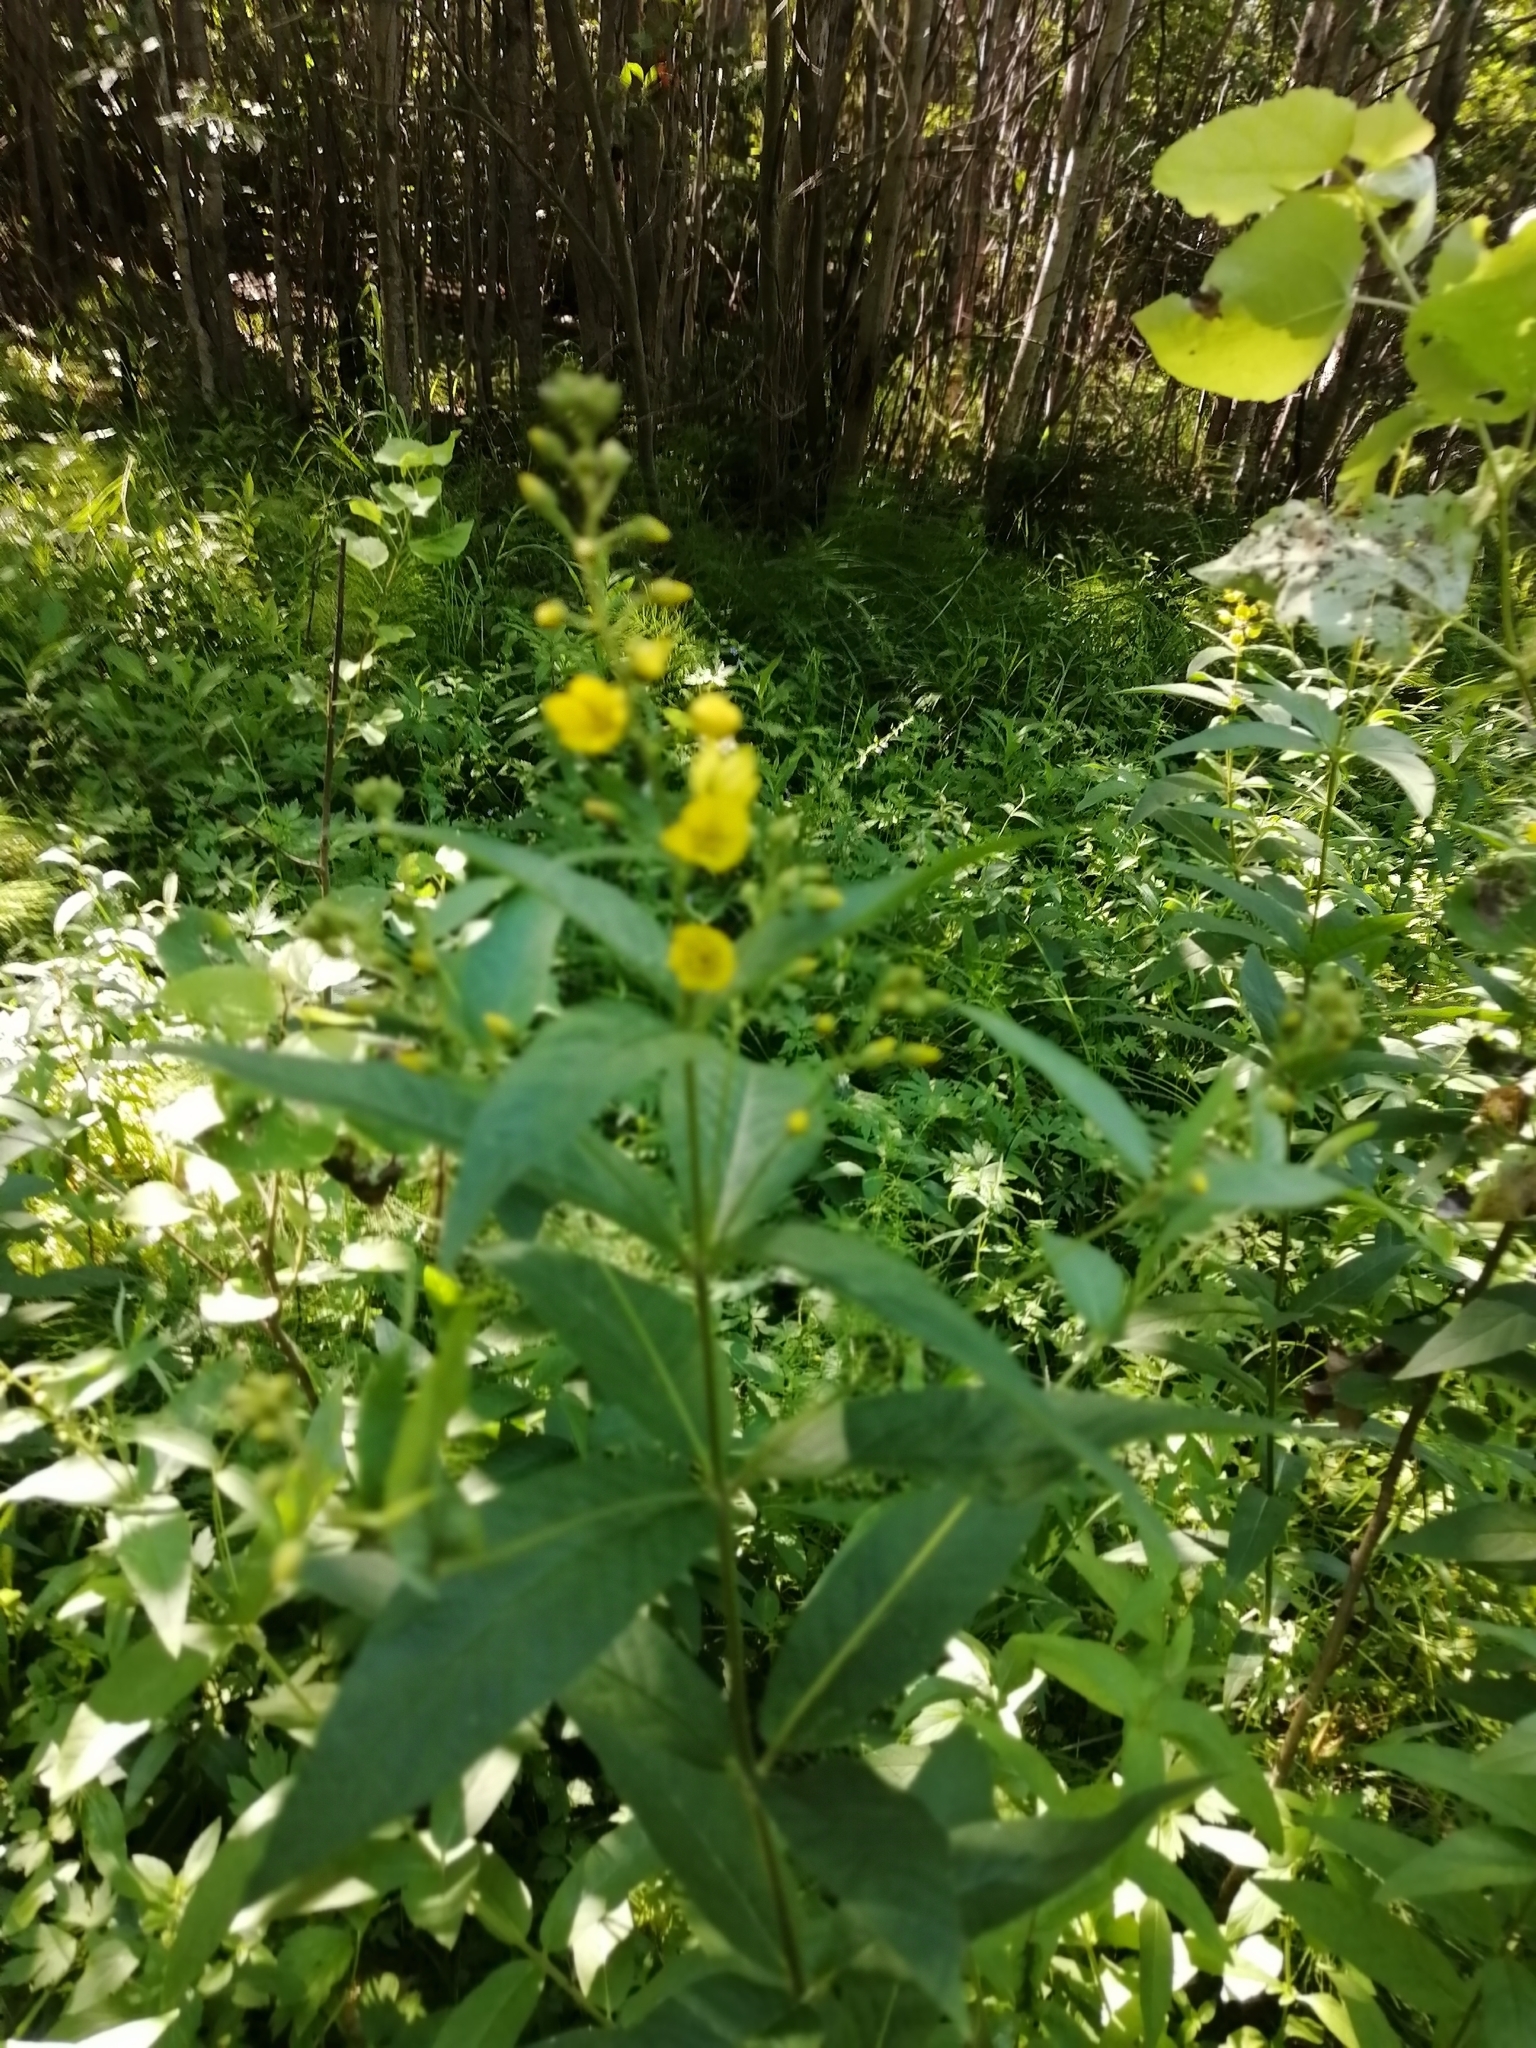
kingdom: Plantae
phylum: Tracheophyta
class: Magnoliopsida
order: Ericales
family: Primulaceae
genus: Lysimachia
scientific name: Lysimachia vulgaris
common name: Yellow loosestrife
